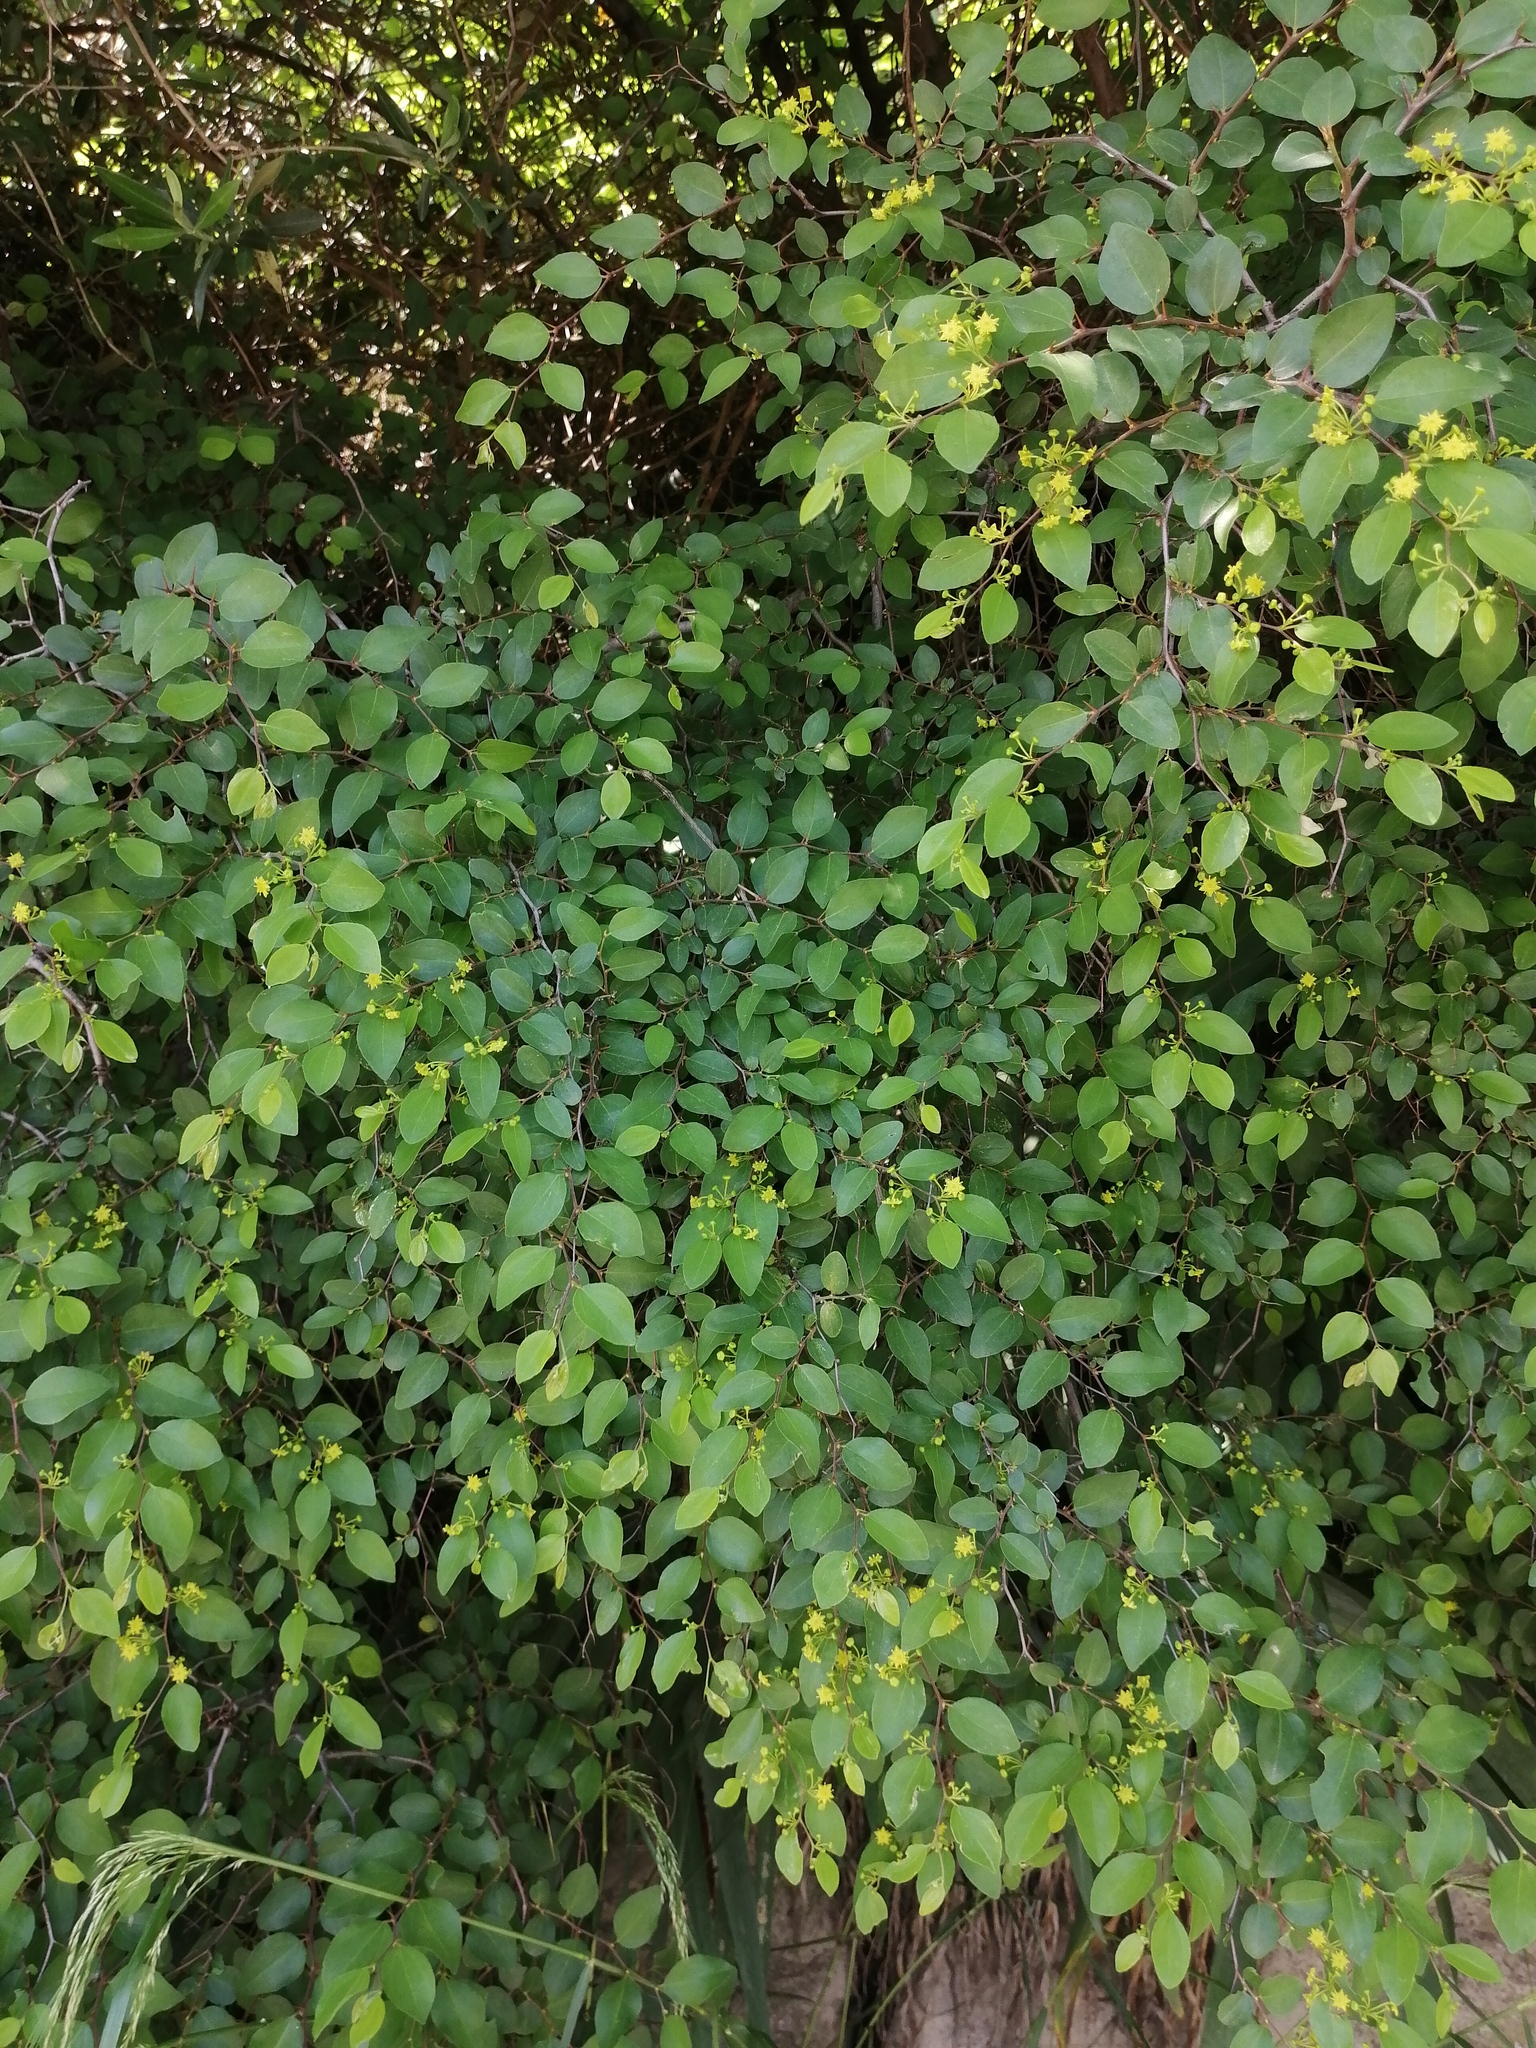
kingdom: Plantae
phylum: Tracheophyta
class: Magnoliopsida
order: Rosales
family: Rhamnaceae
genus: Paliurus
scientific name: Paliurus spina-christi
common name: Jeruselem thorn
